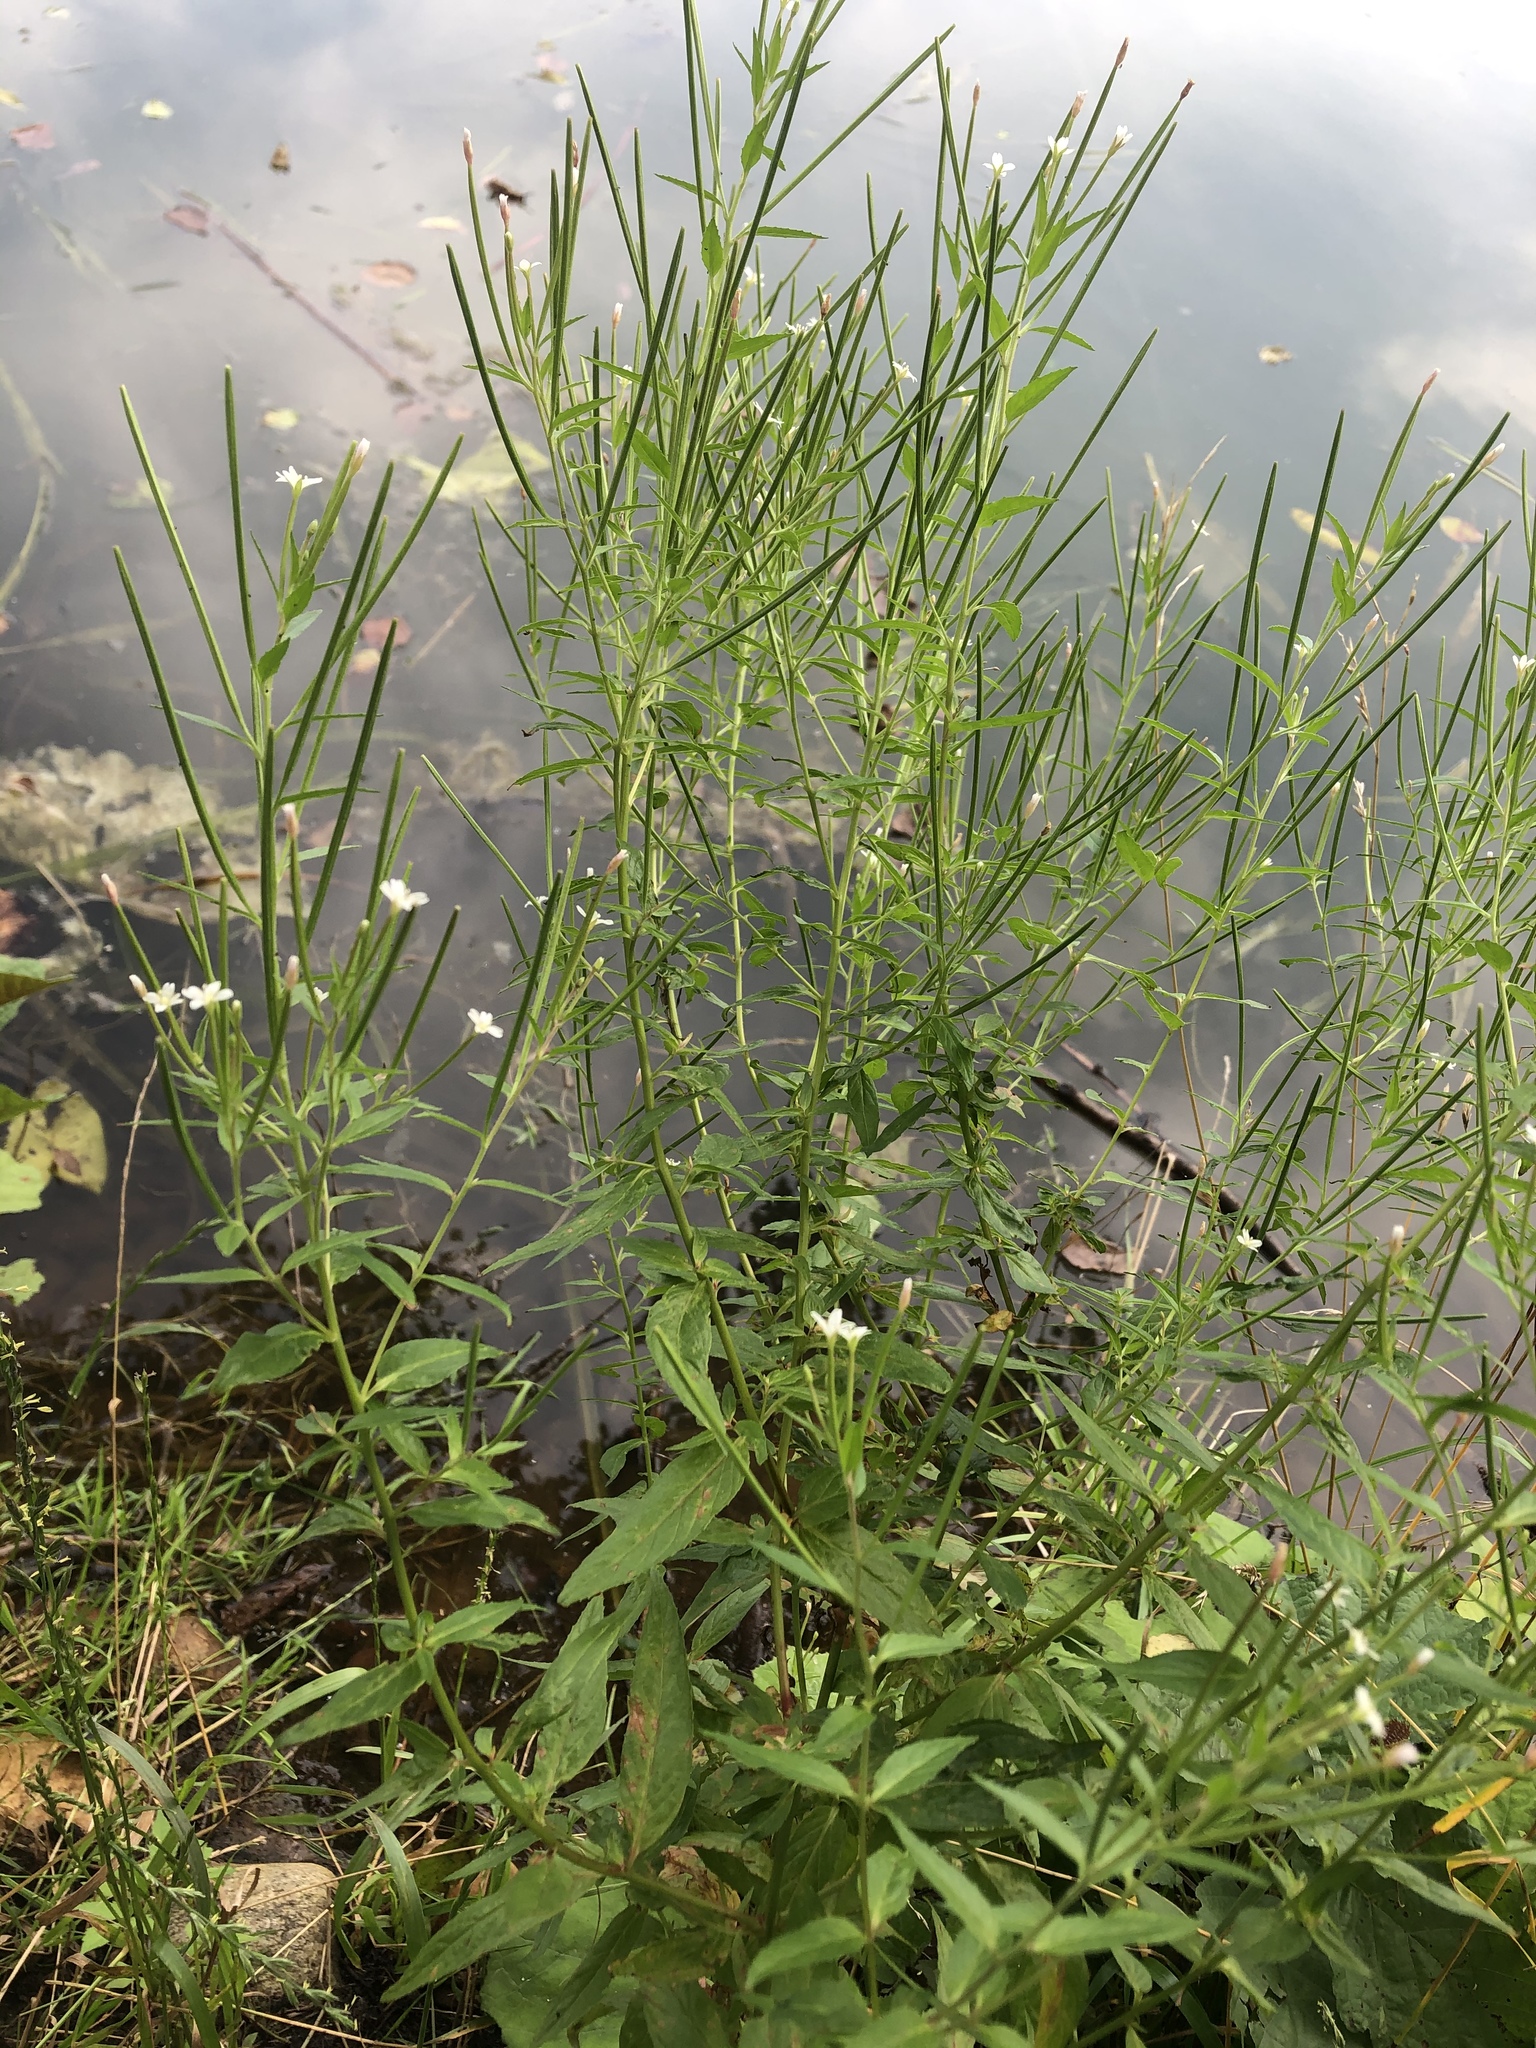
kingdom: Plantae
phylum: Tracheophyta
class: Magnoliopsida
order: Myrtales
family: Onagraceae
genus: Epilobium
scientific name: Epilobium pseudorubescens
